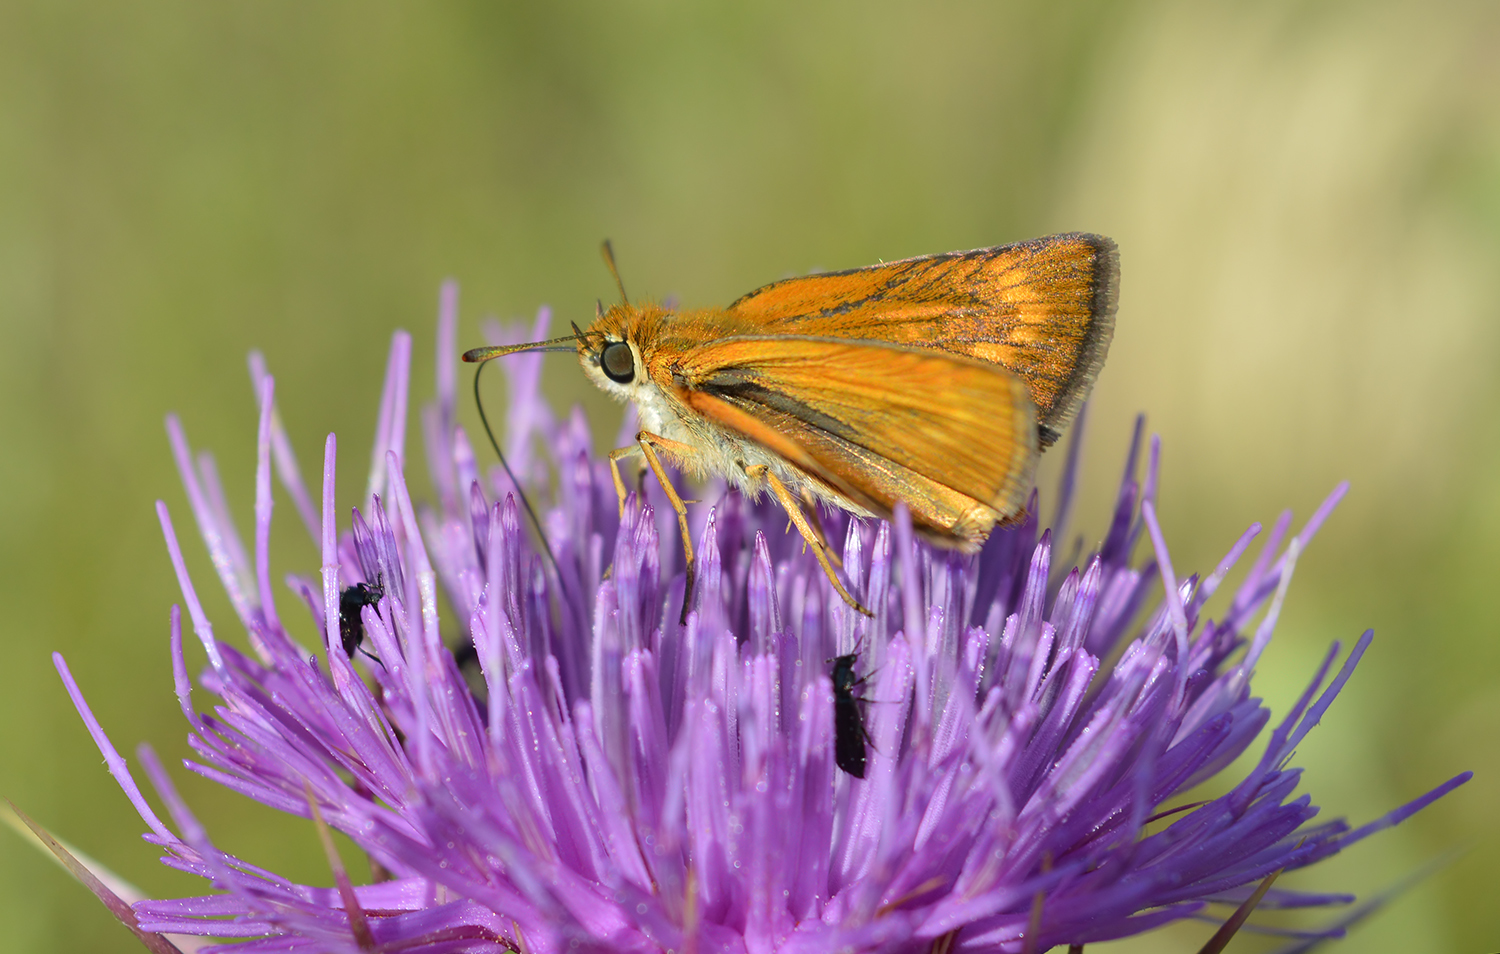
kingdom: Animalia
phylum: Arthropoda
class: Insecta
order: Lepidoptera
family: Hesperiidae
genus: Thymelicus
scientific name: Thymelicus acteon
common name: Lulworth skipper
